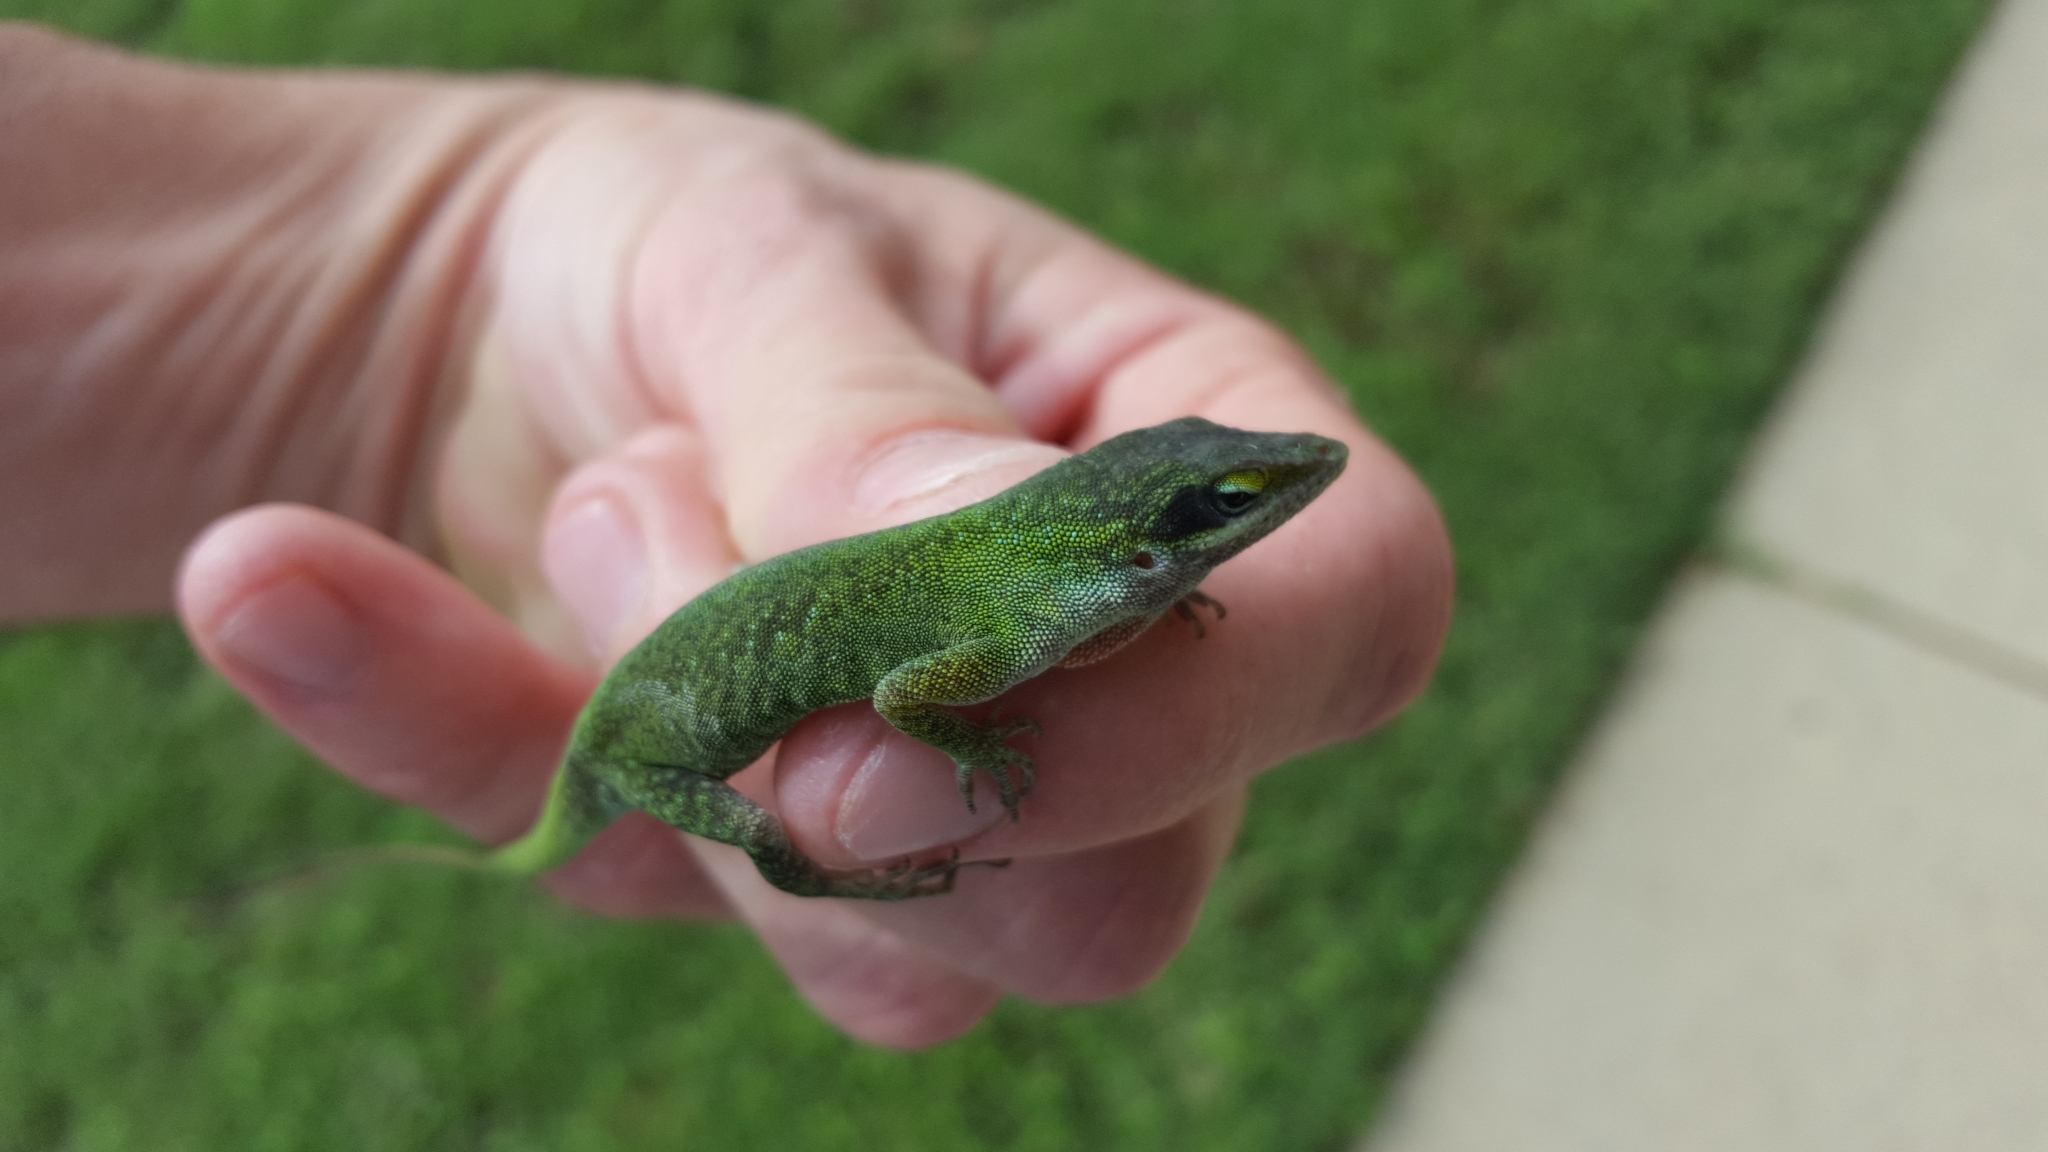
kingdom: Animalia
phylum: Chordata
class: Squamata
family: Dactyloidae
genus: Anolis
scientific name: Anolis carolinensis
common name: Green anole
